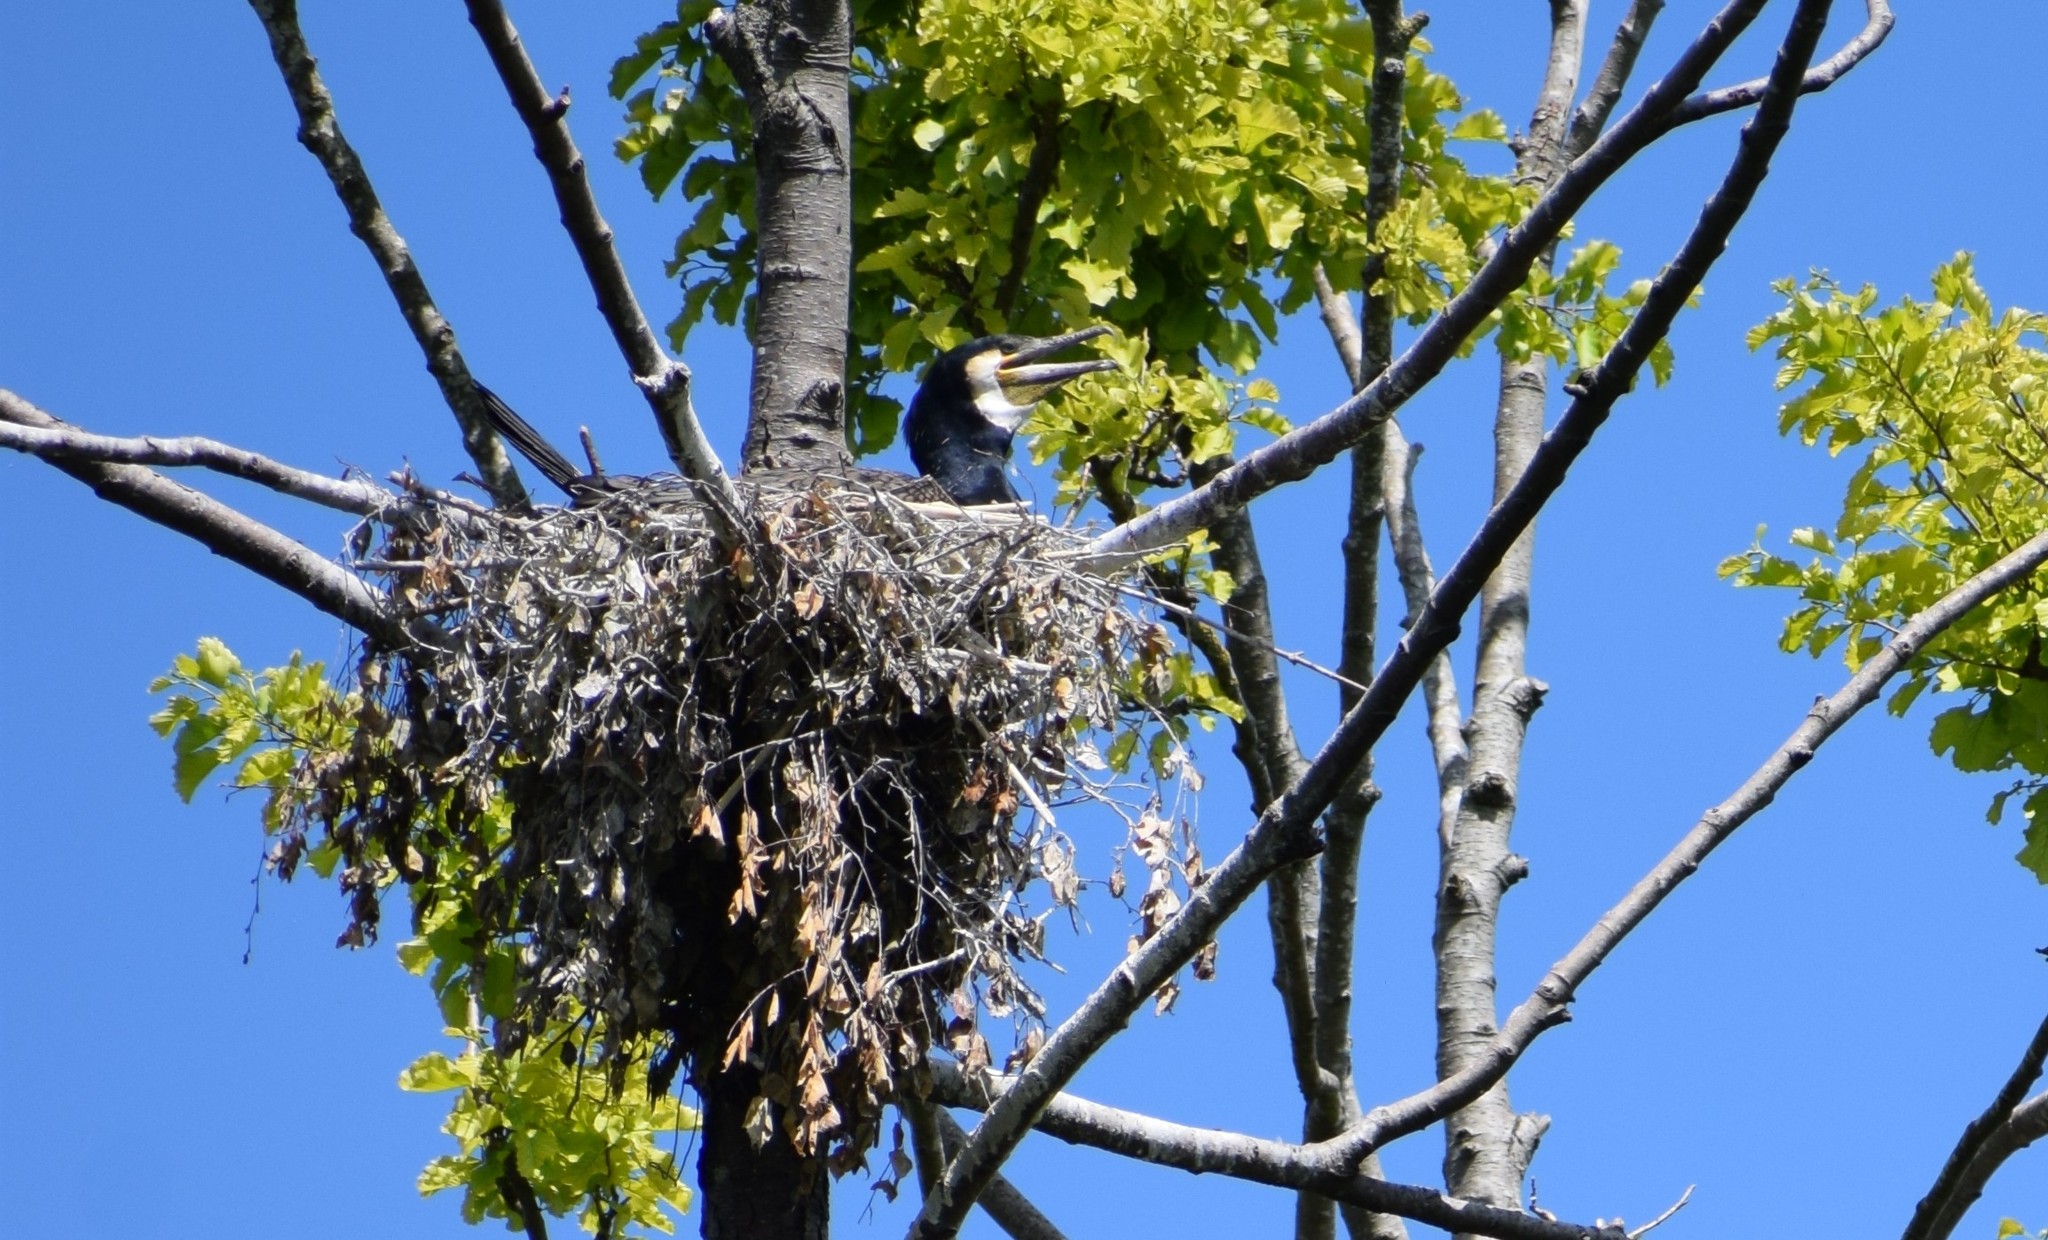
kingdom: Animalia
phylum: Chordata
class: Aves
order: Suliformes
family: Phalacrocoracidae
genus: Phalacrocorax
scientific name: Phalacrocorax carbo
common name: Great cormorant
